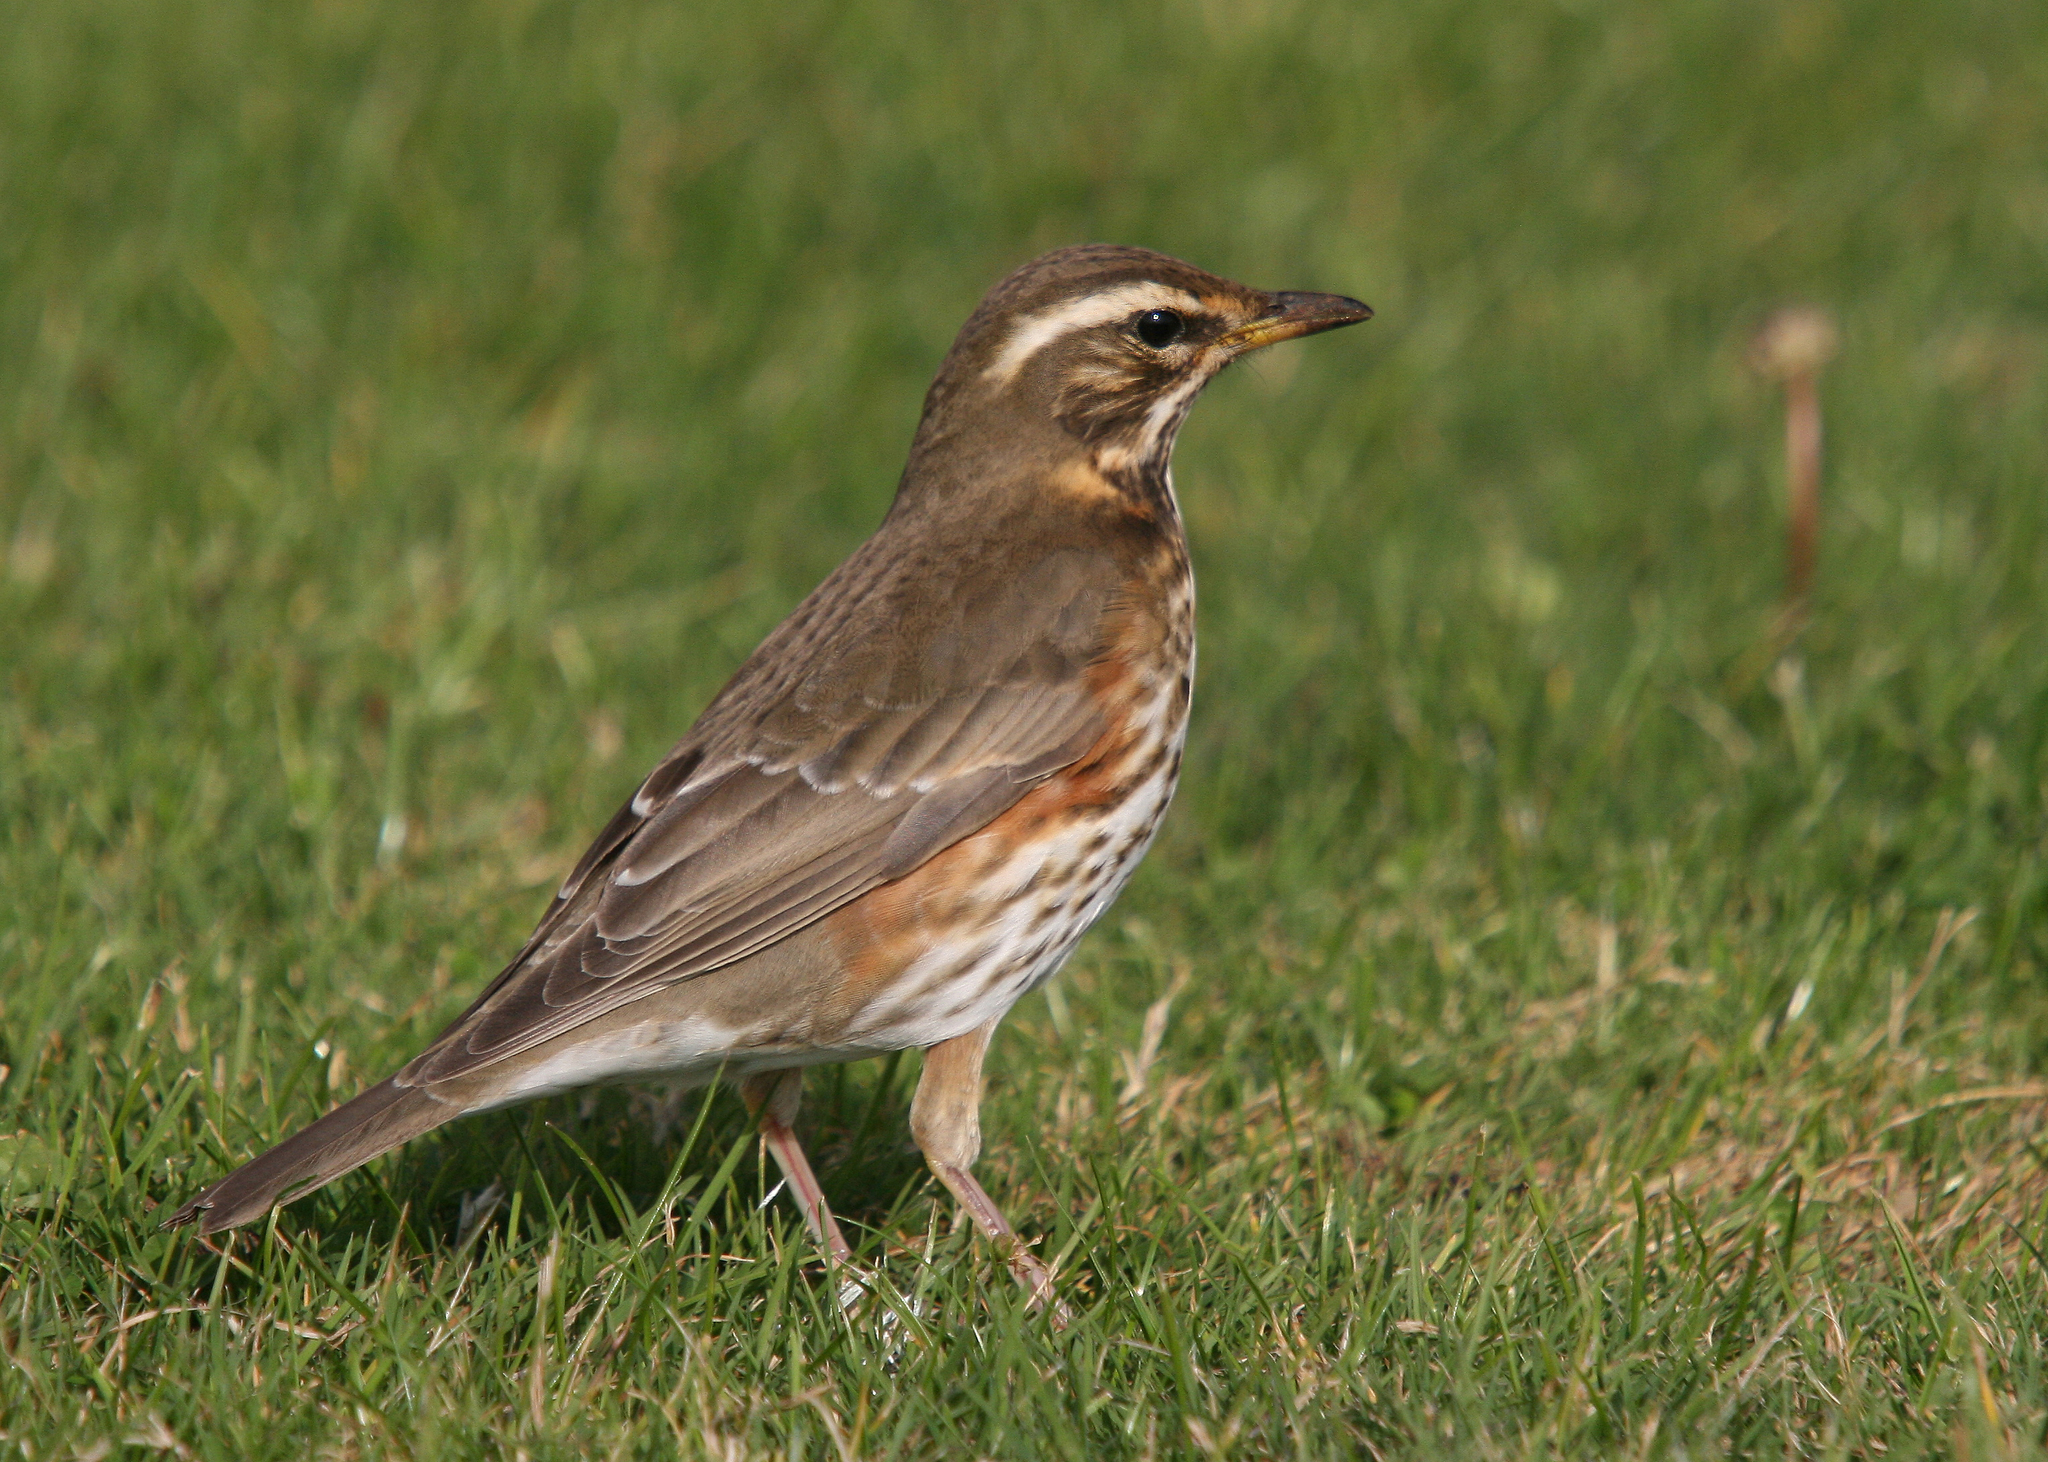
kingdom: Animalia
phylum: Chordata
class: Aves
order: Passeriformes
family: Turdidae
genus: Turdus
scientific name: Turdus iliacus
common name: Redwing
